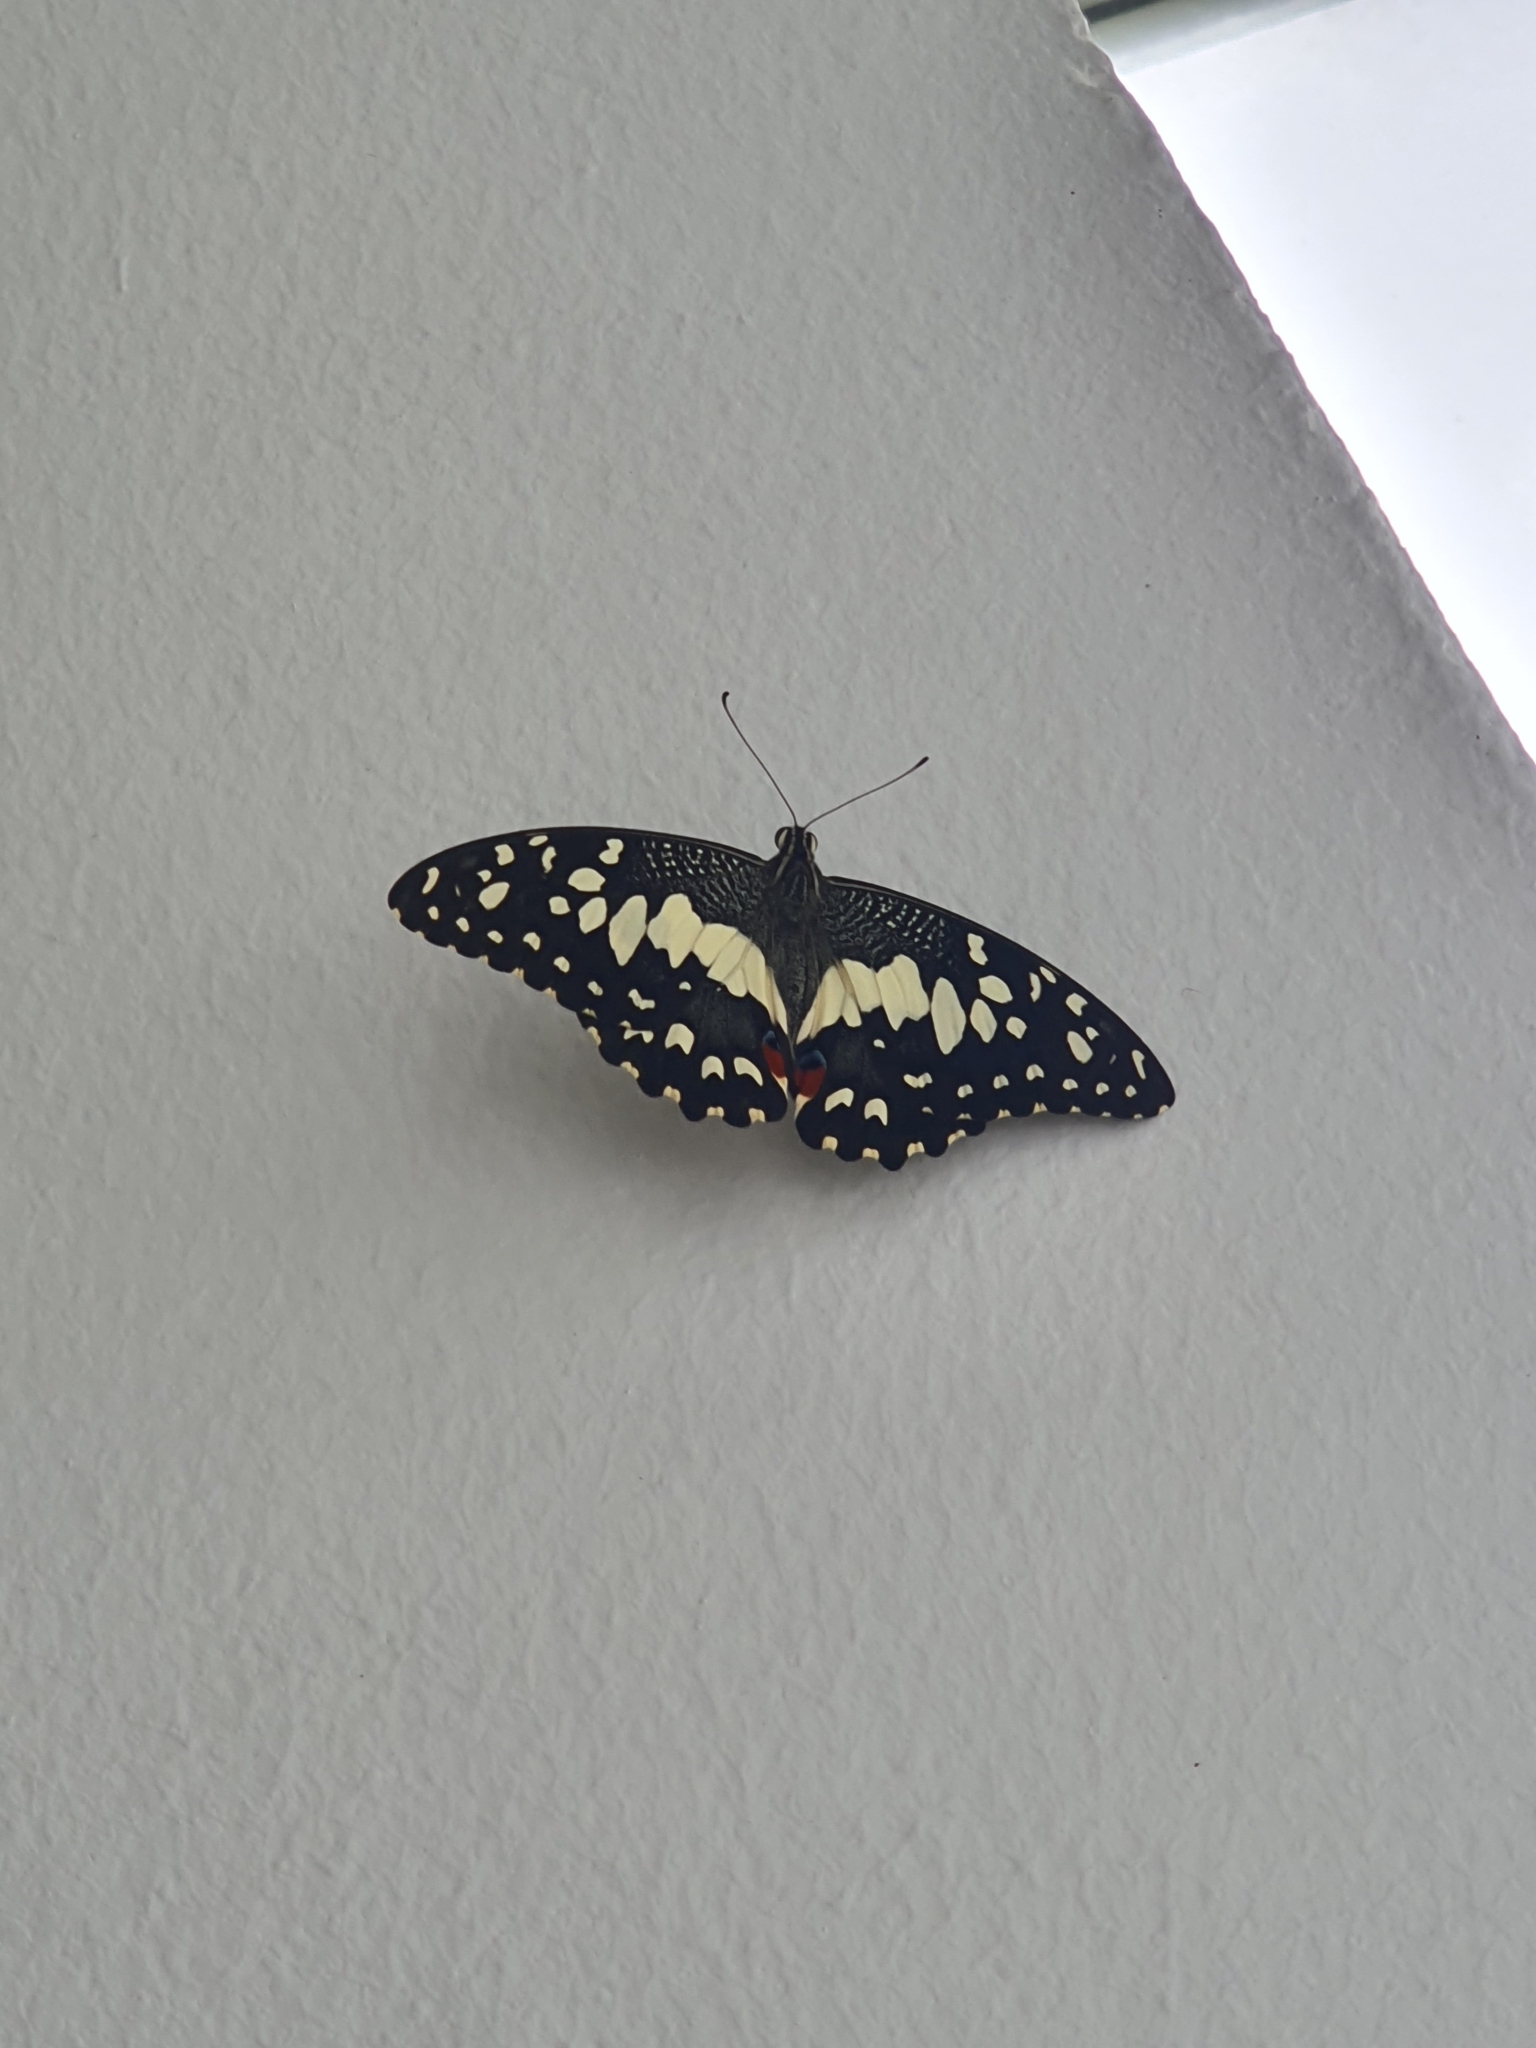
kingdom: Animalia
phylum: Arthropoda
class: Insecta
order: Lepidoptera
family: Papilionidae
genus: Papilio
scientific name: Papilio demoleus
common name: Lime butterfly
